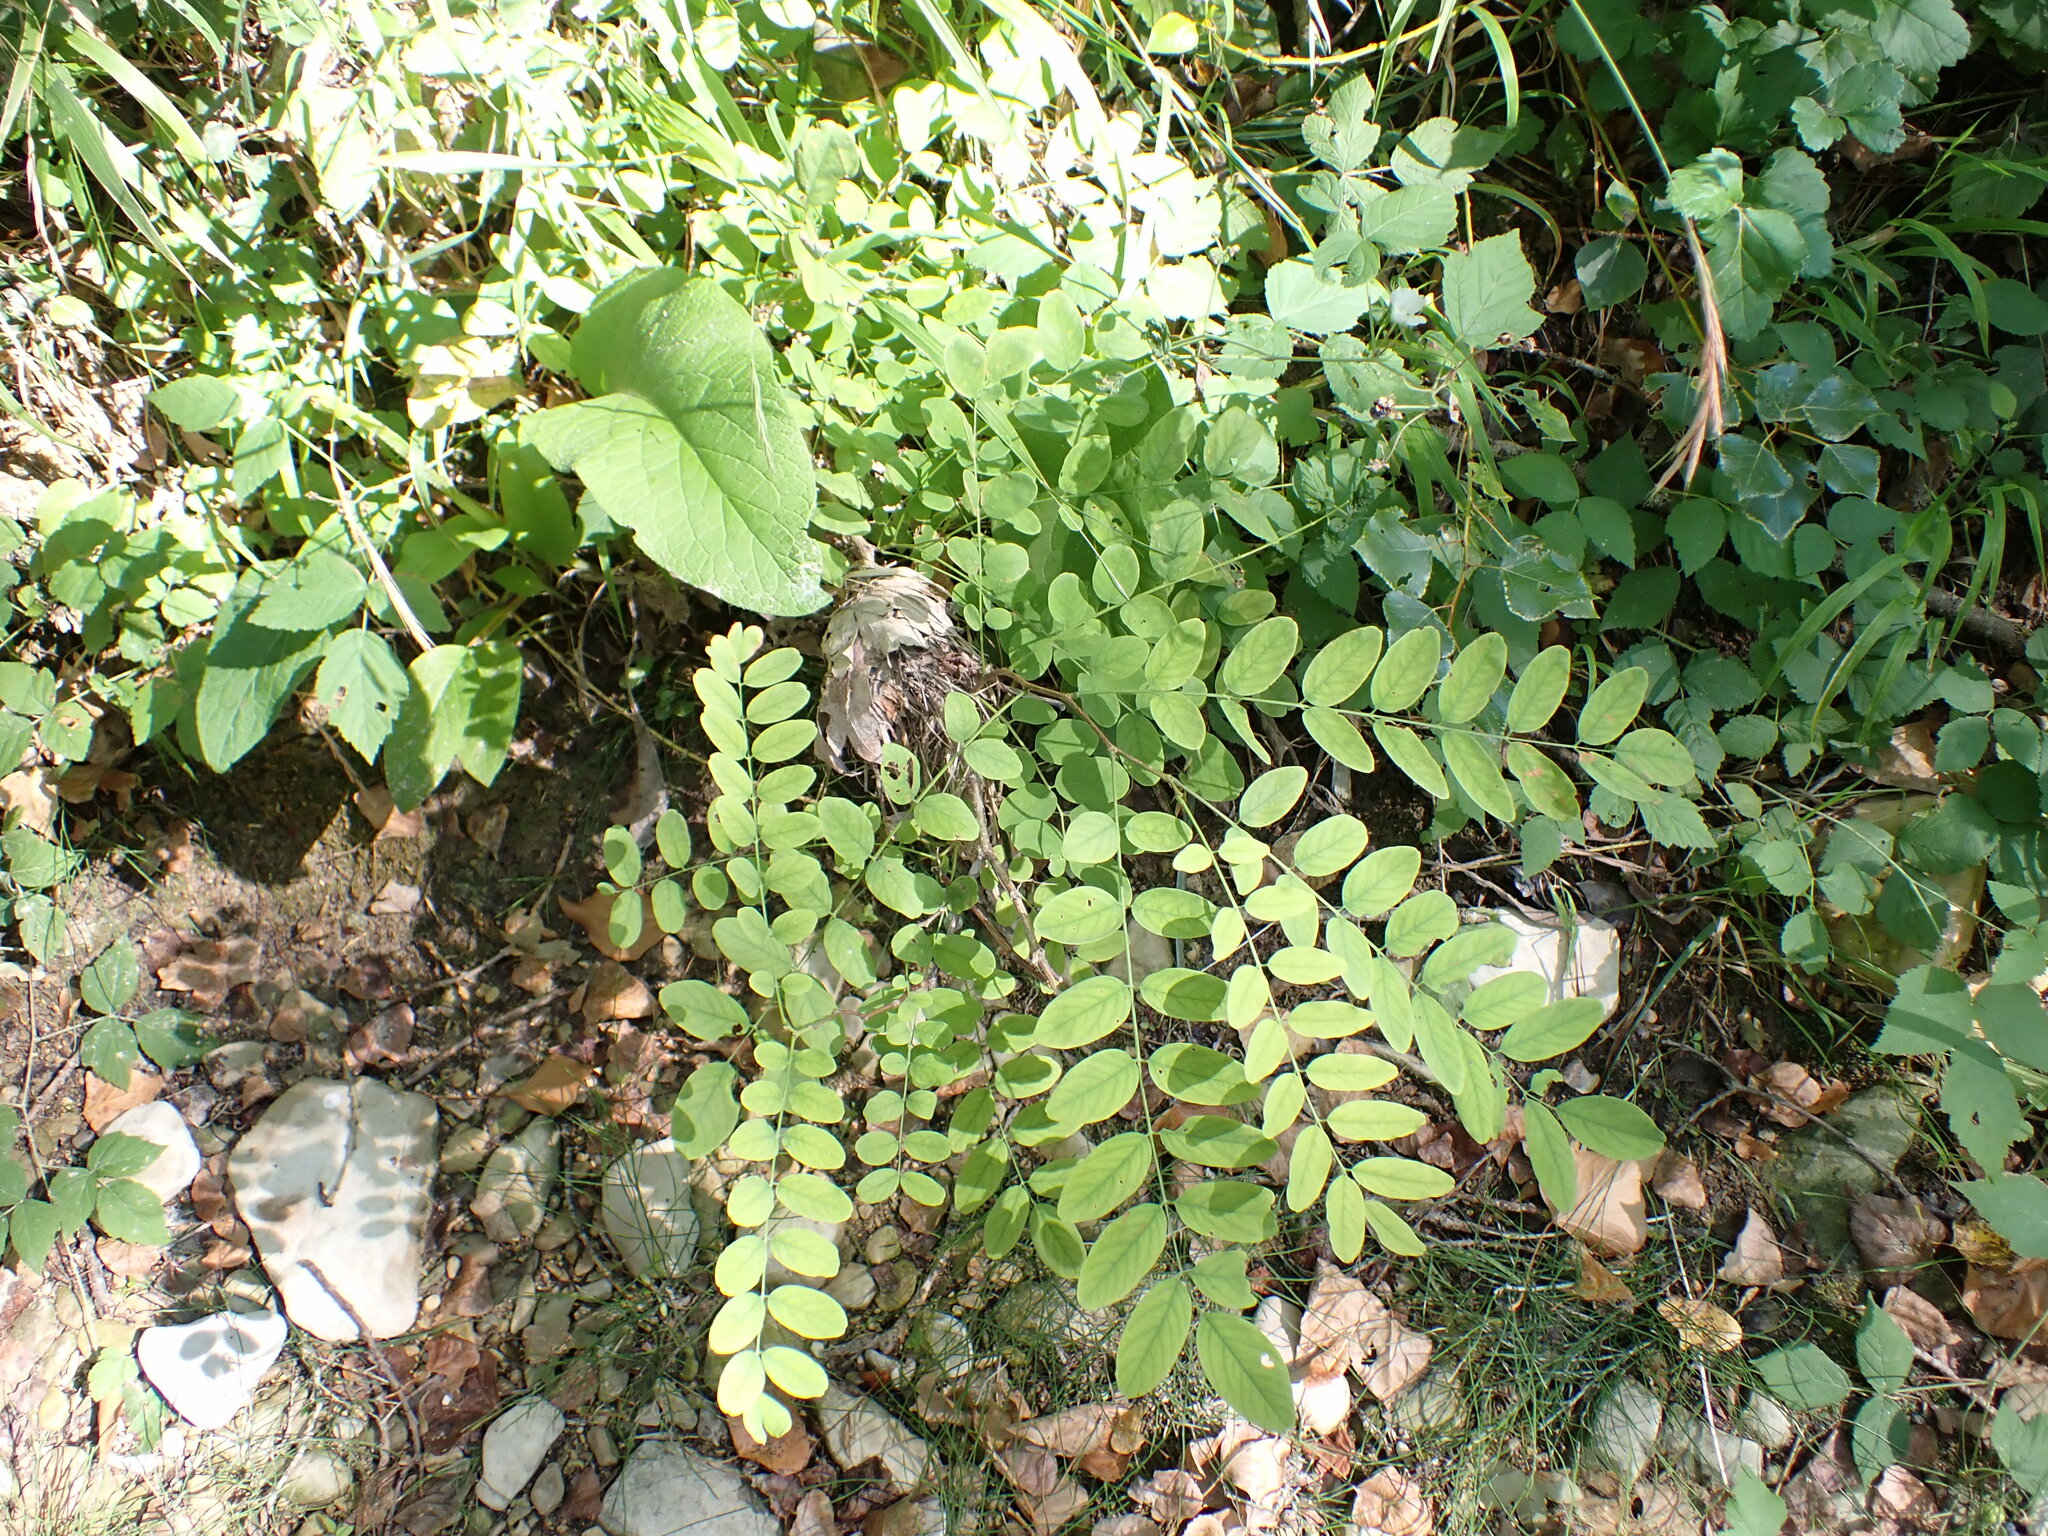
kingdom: Plantae
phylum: Tracheophyta
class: Magnoliopsida
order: Fabales
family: Fabaceae
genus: Robinia
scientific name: Robinia pseudoacacia
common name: Black locust
